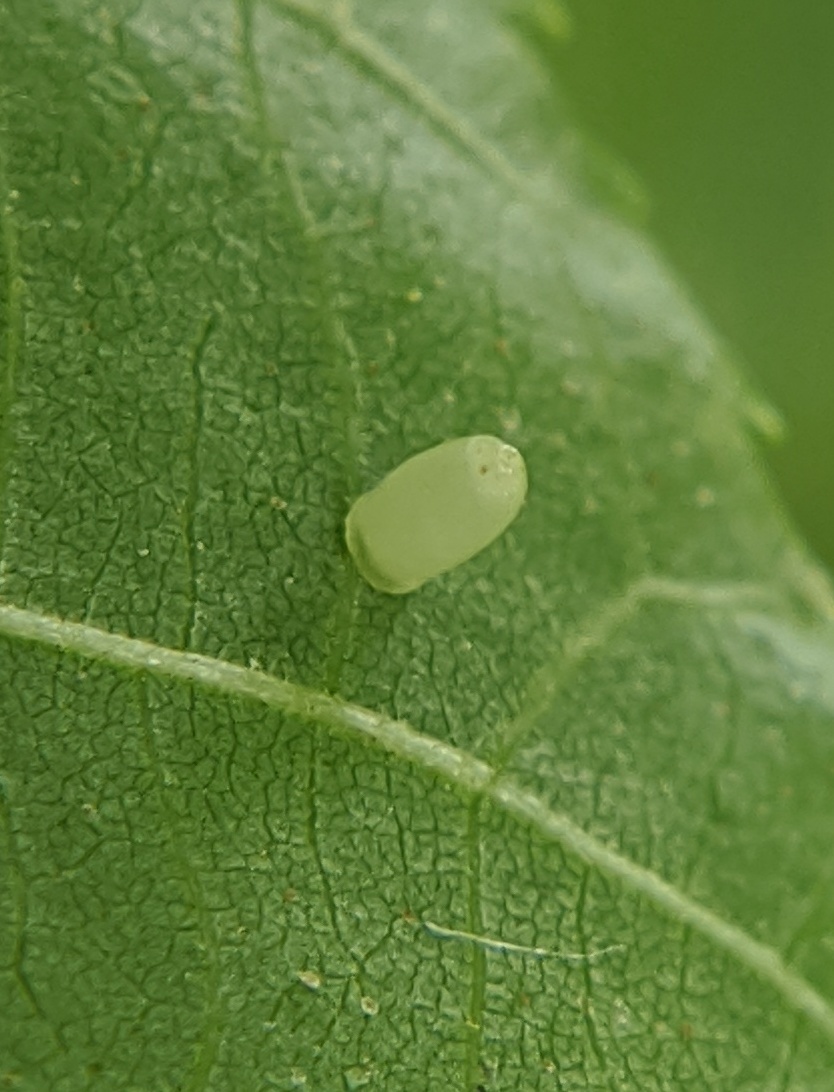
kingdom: Animalia
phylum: Arthropoda
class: Insecta
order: Diptera
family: Cecidomyiidae
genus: Caryomyia
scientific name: Caryomyia urnula
